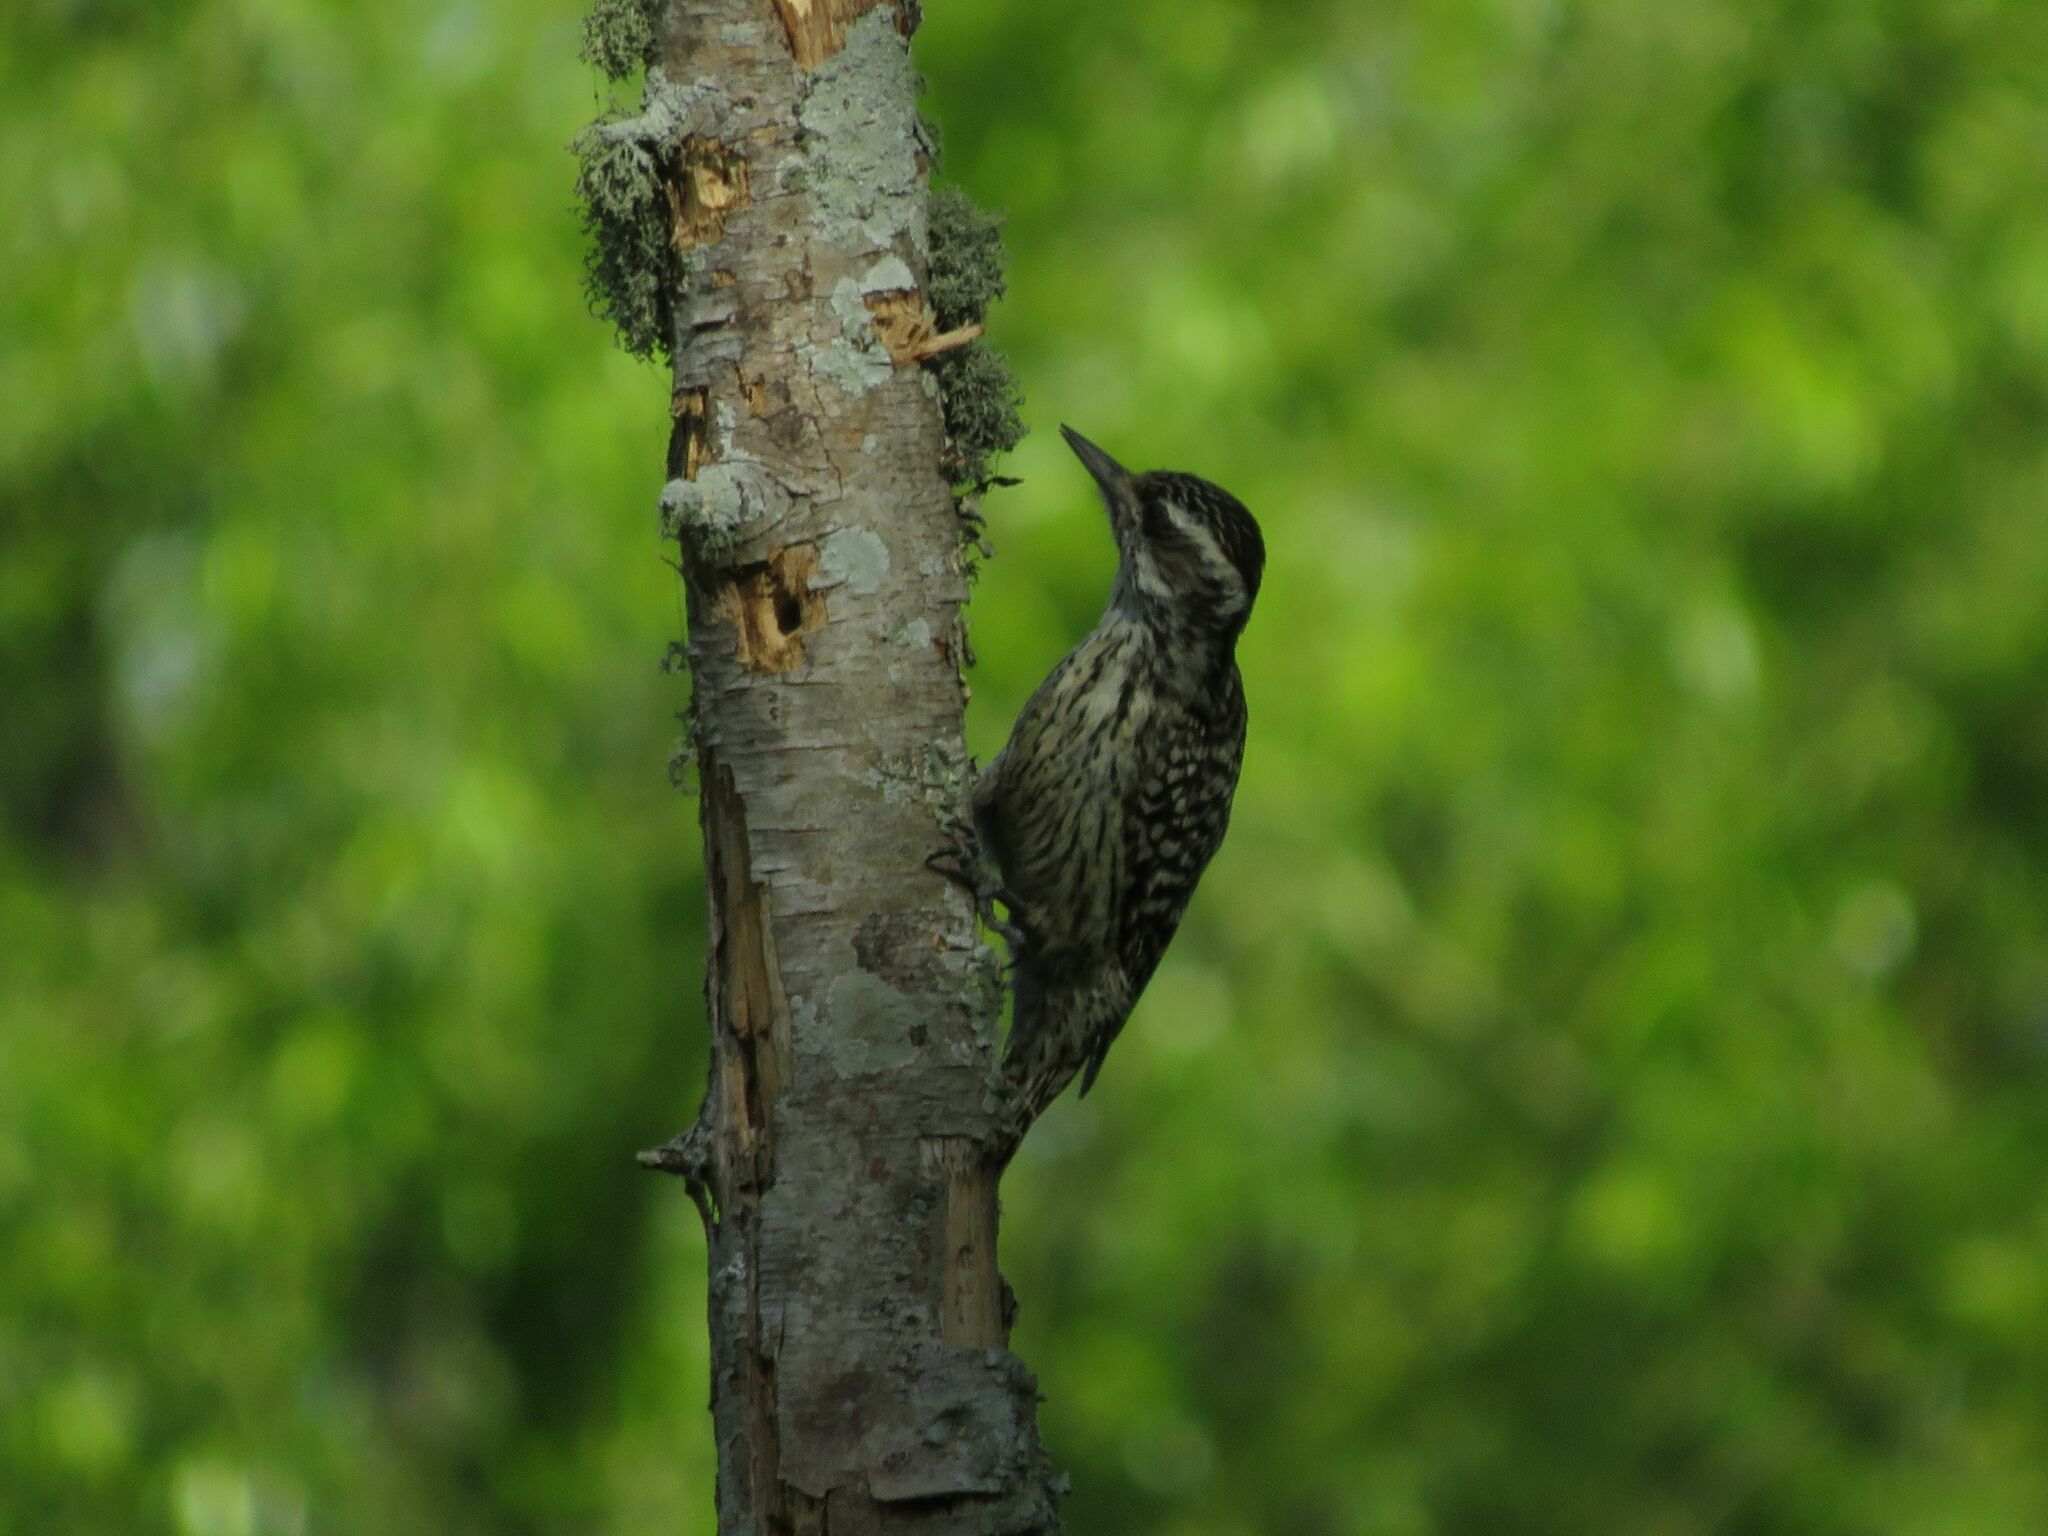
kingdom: Animalia
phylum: Chordata
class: Aves
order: Piciformes
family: Picidae
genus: Veniliornis
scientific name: Veniliornis mixtus
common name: Checkered woodpecker
